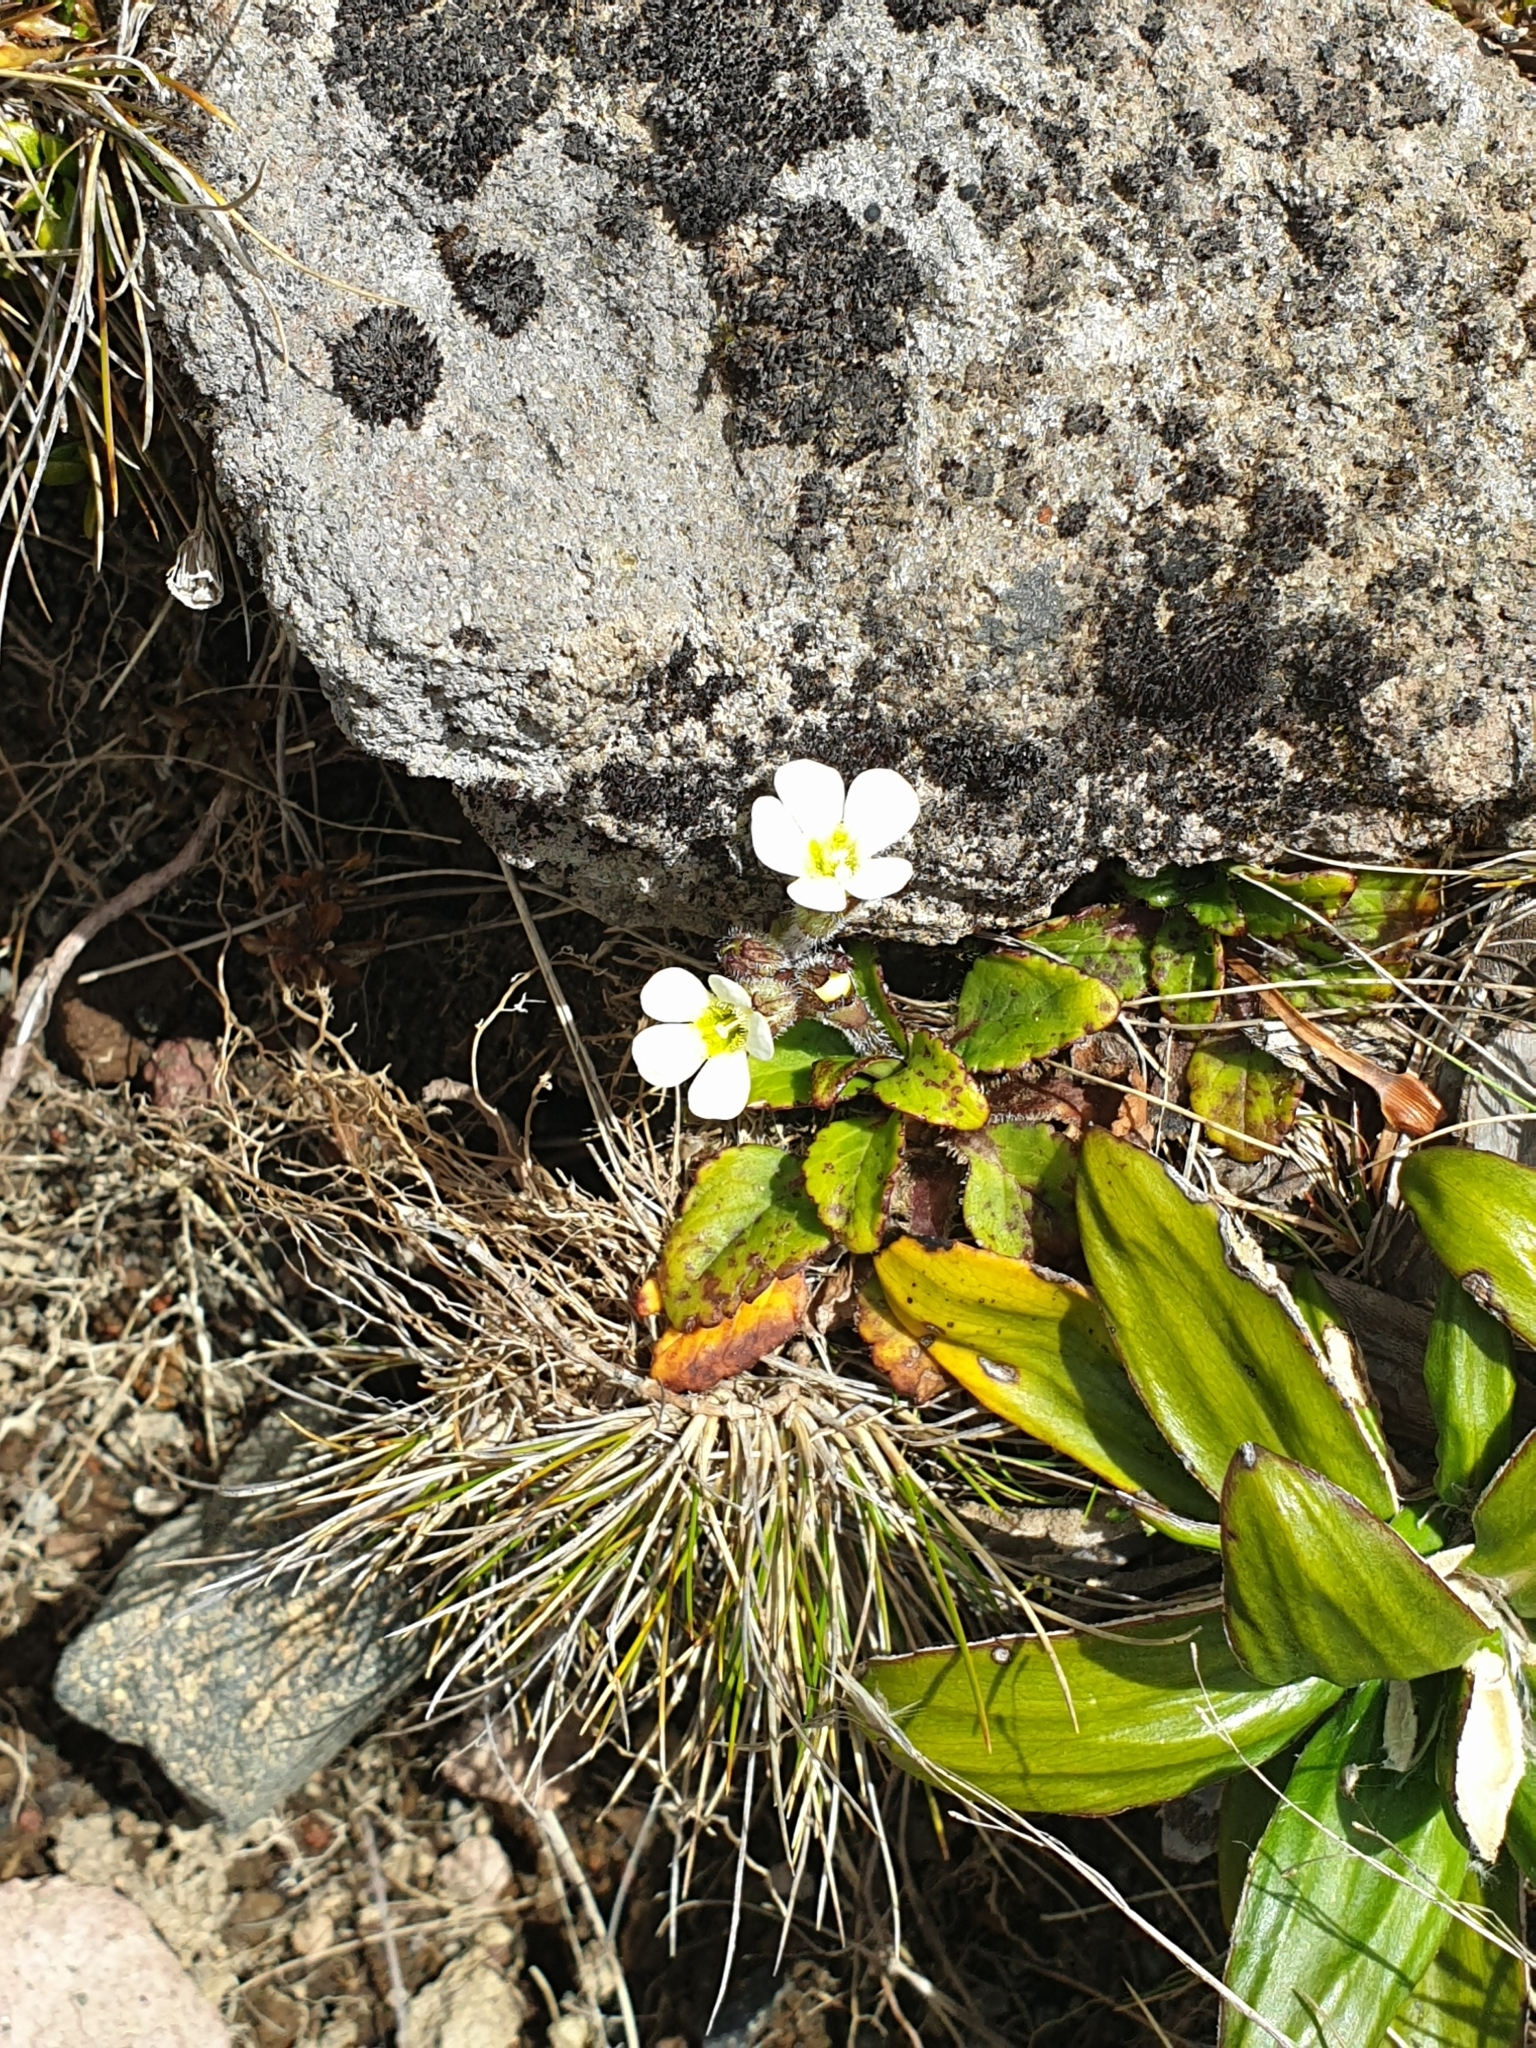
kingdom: Plantae
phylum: Tracheophyta
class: Magnoliopsida
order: Lamiales
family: Plantaginaceae
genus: Ourisia
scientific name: Ourisia vulcanica
